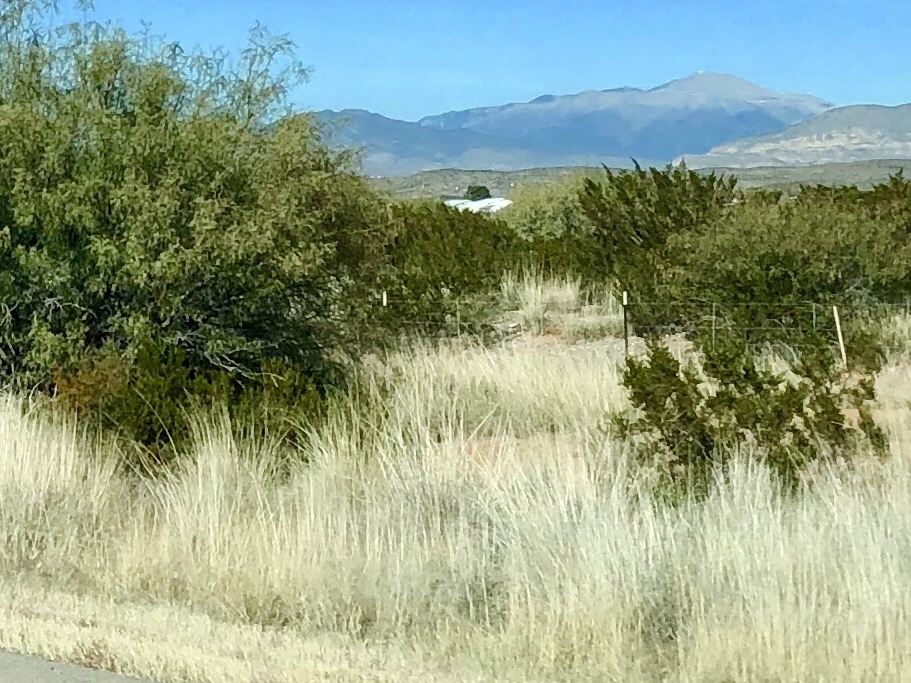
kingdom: Plantae
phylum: Tracheophyta
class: Magnoliopsida
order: Zygophyllales
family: Zygophyllaceae
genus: Larrea
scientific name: Larrea tridentata
